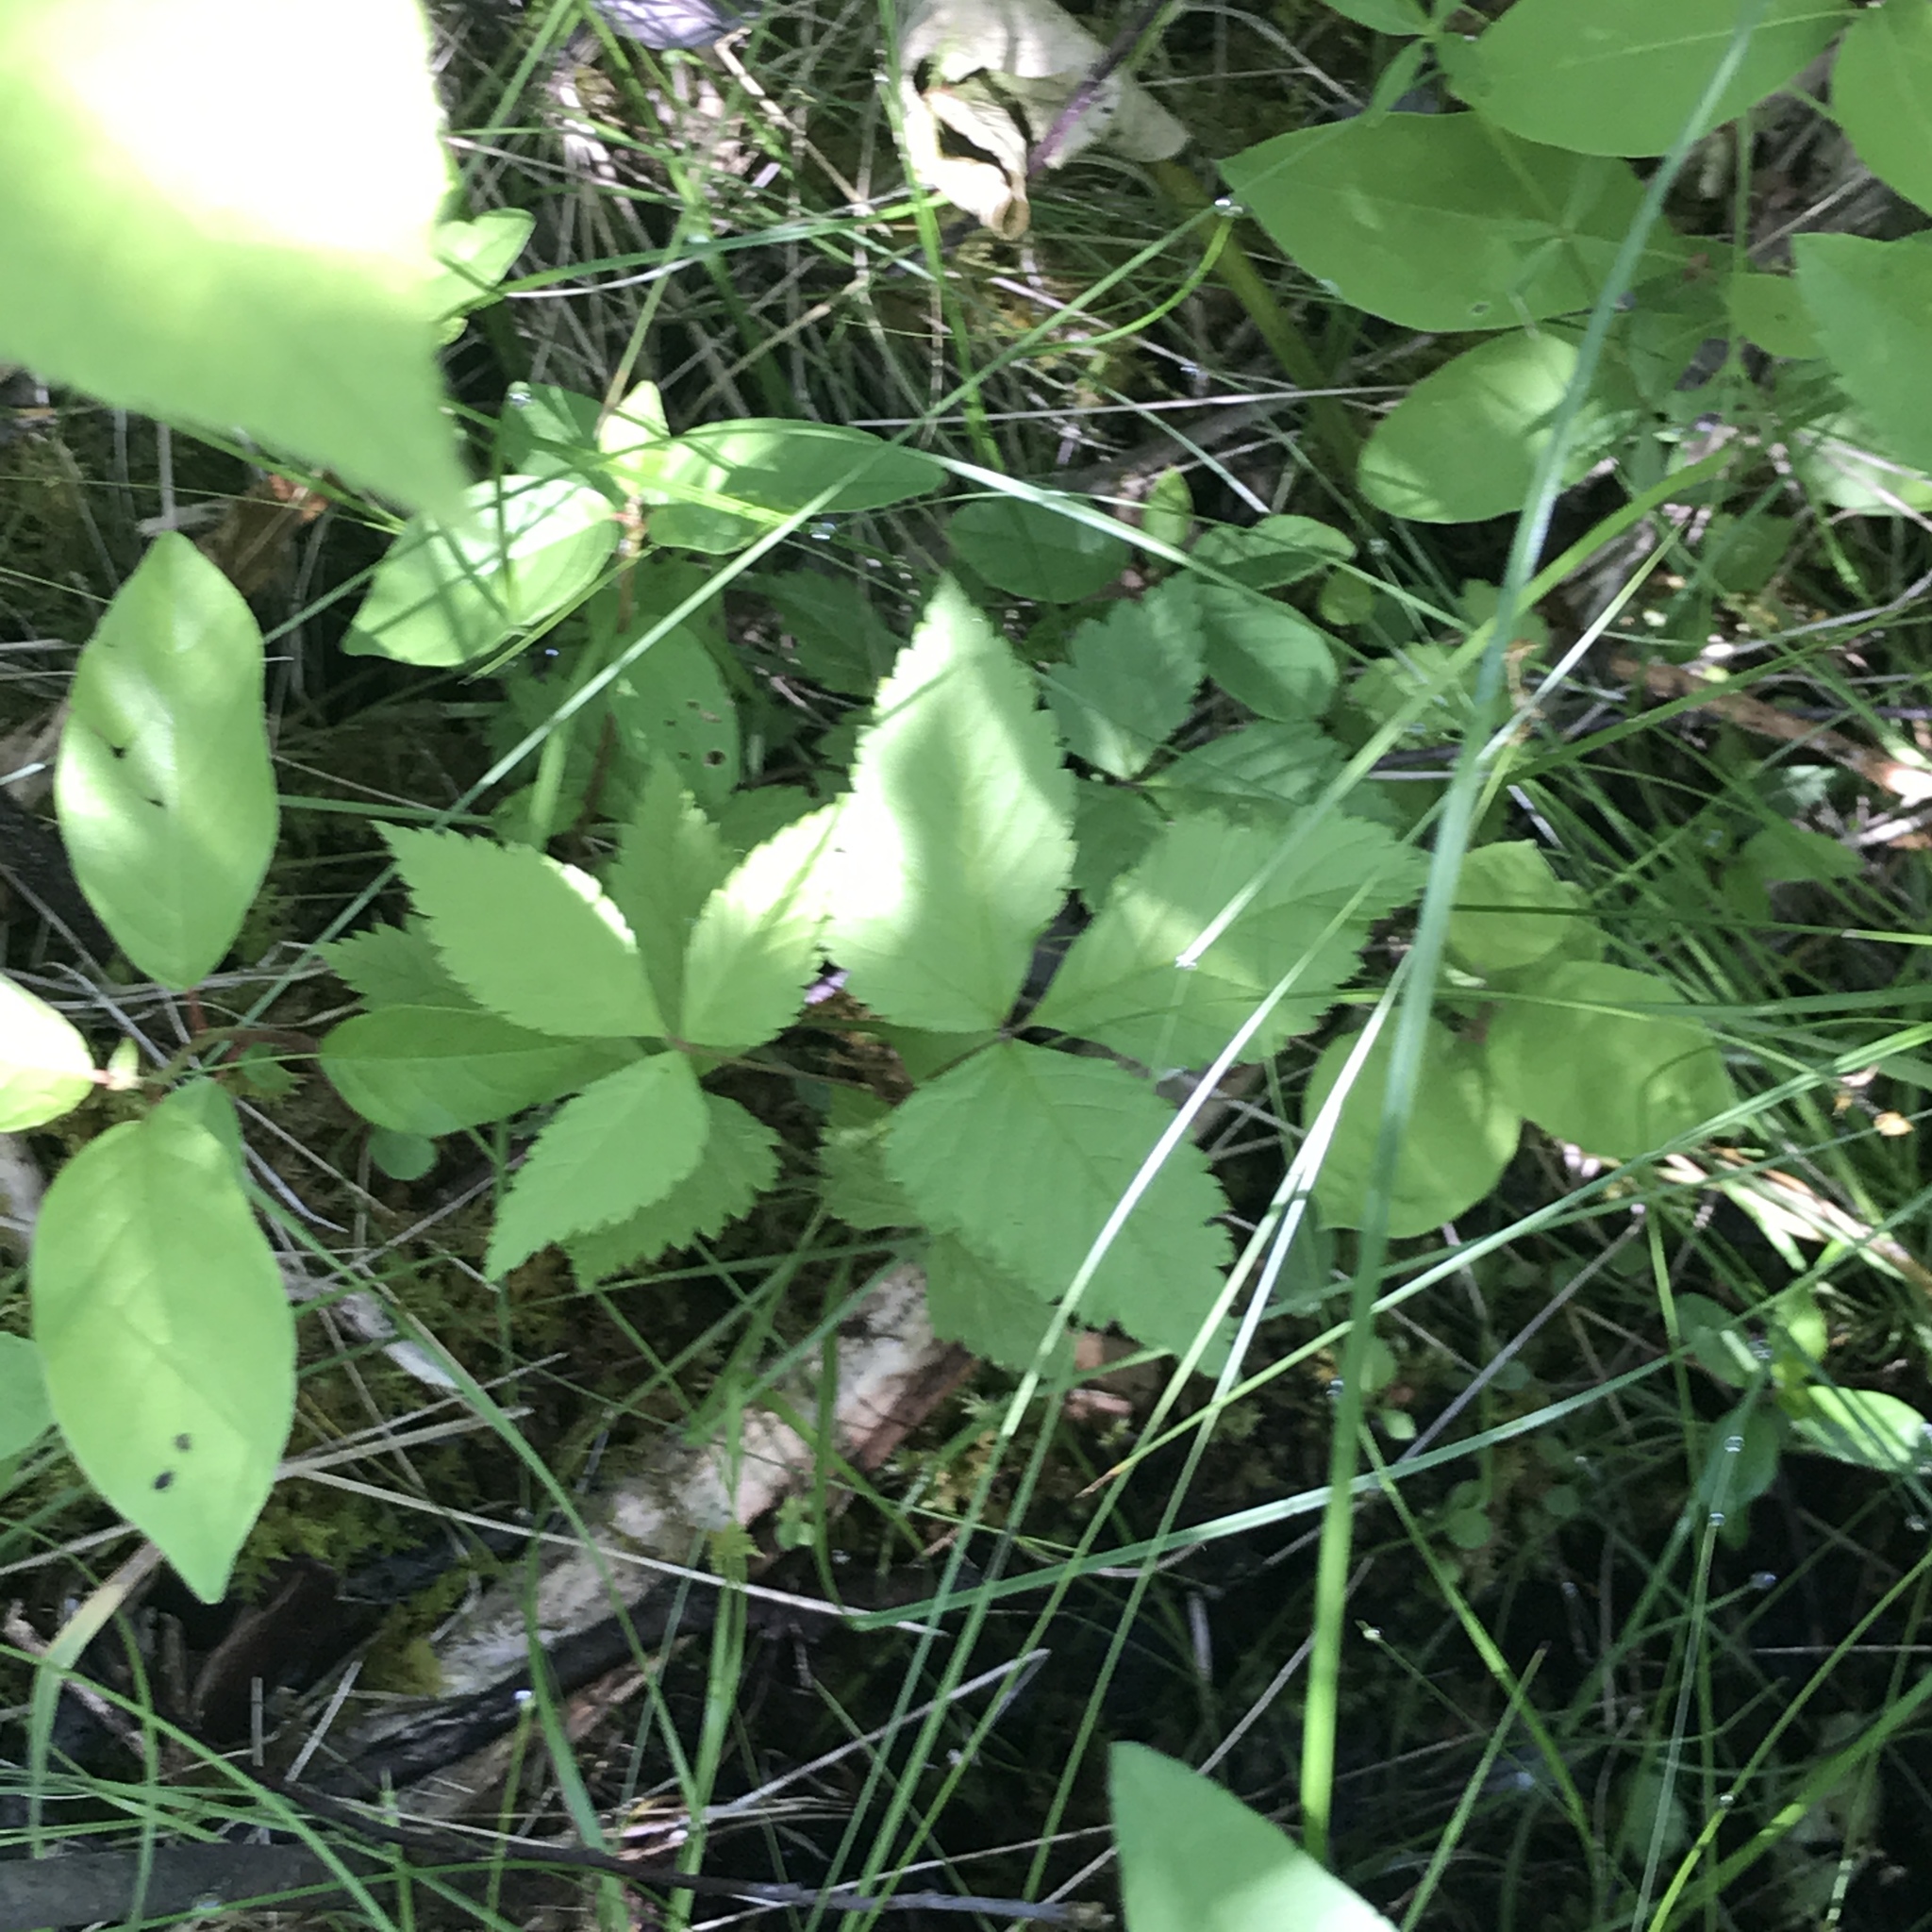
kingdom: Plantae
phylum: Tracheophyta
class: Magnoliopsida
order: Rosales
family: Rosaceae
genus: Rubus
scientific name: Rubus pubescens
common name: Dwarf raspberry
